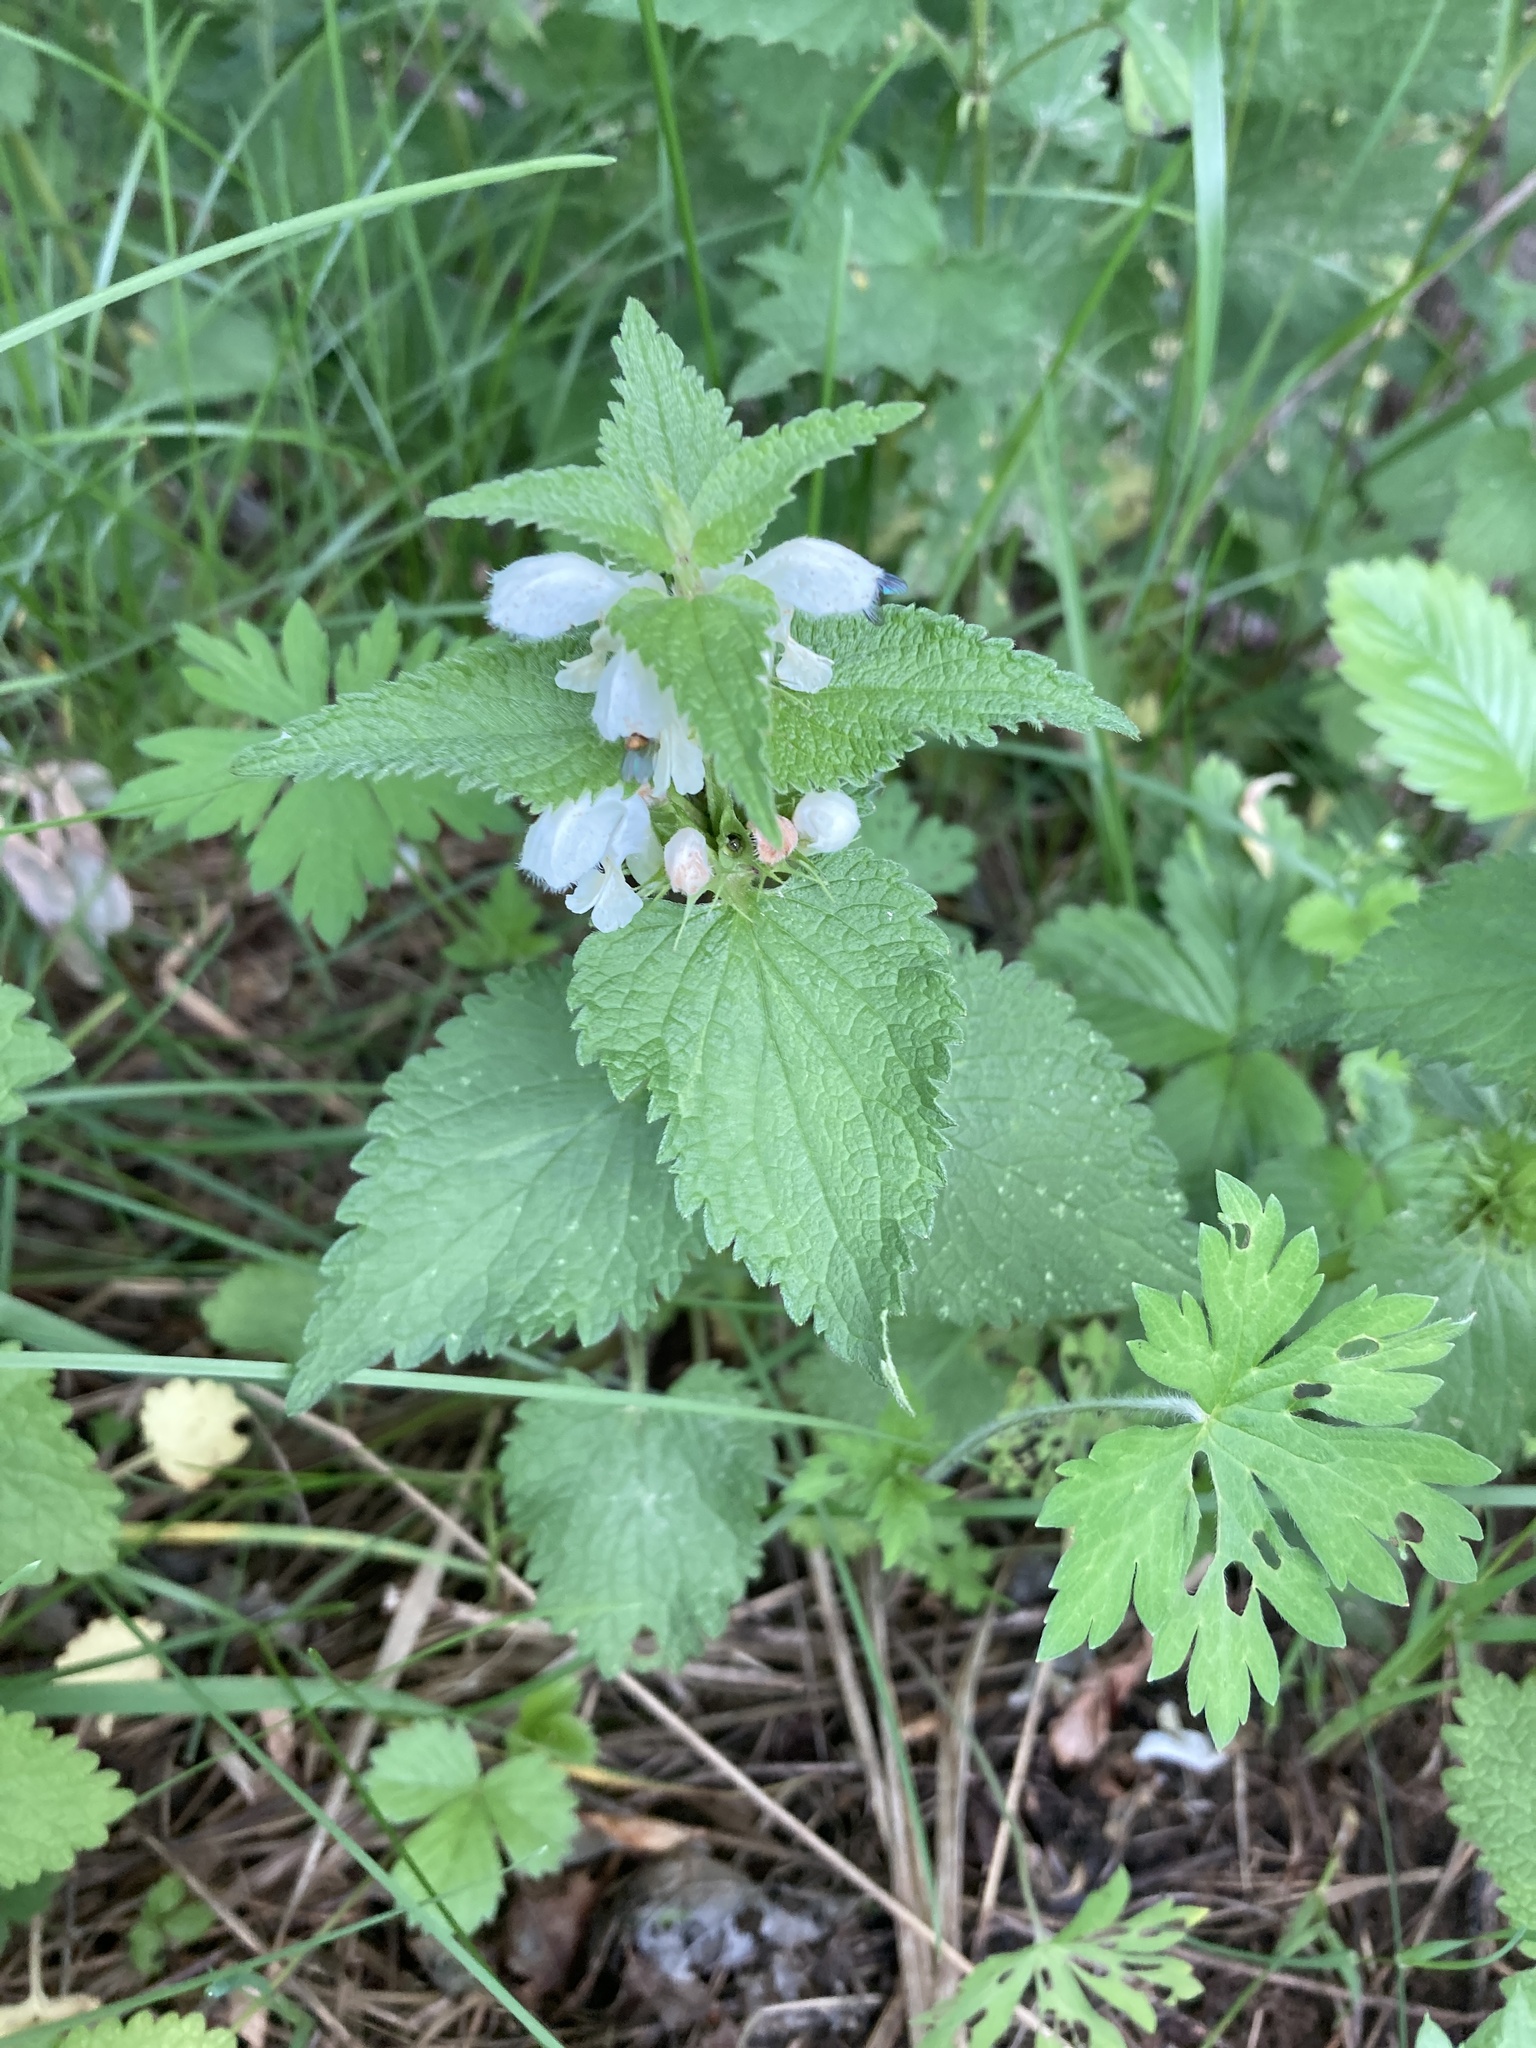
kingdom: Plantae
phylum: Tracheophyta
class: Magnoliopsida
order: Lamiales
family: Lamiaceae
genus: Lamium
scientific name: Lamium album
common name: White dead-nettle
